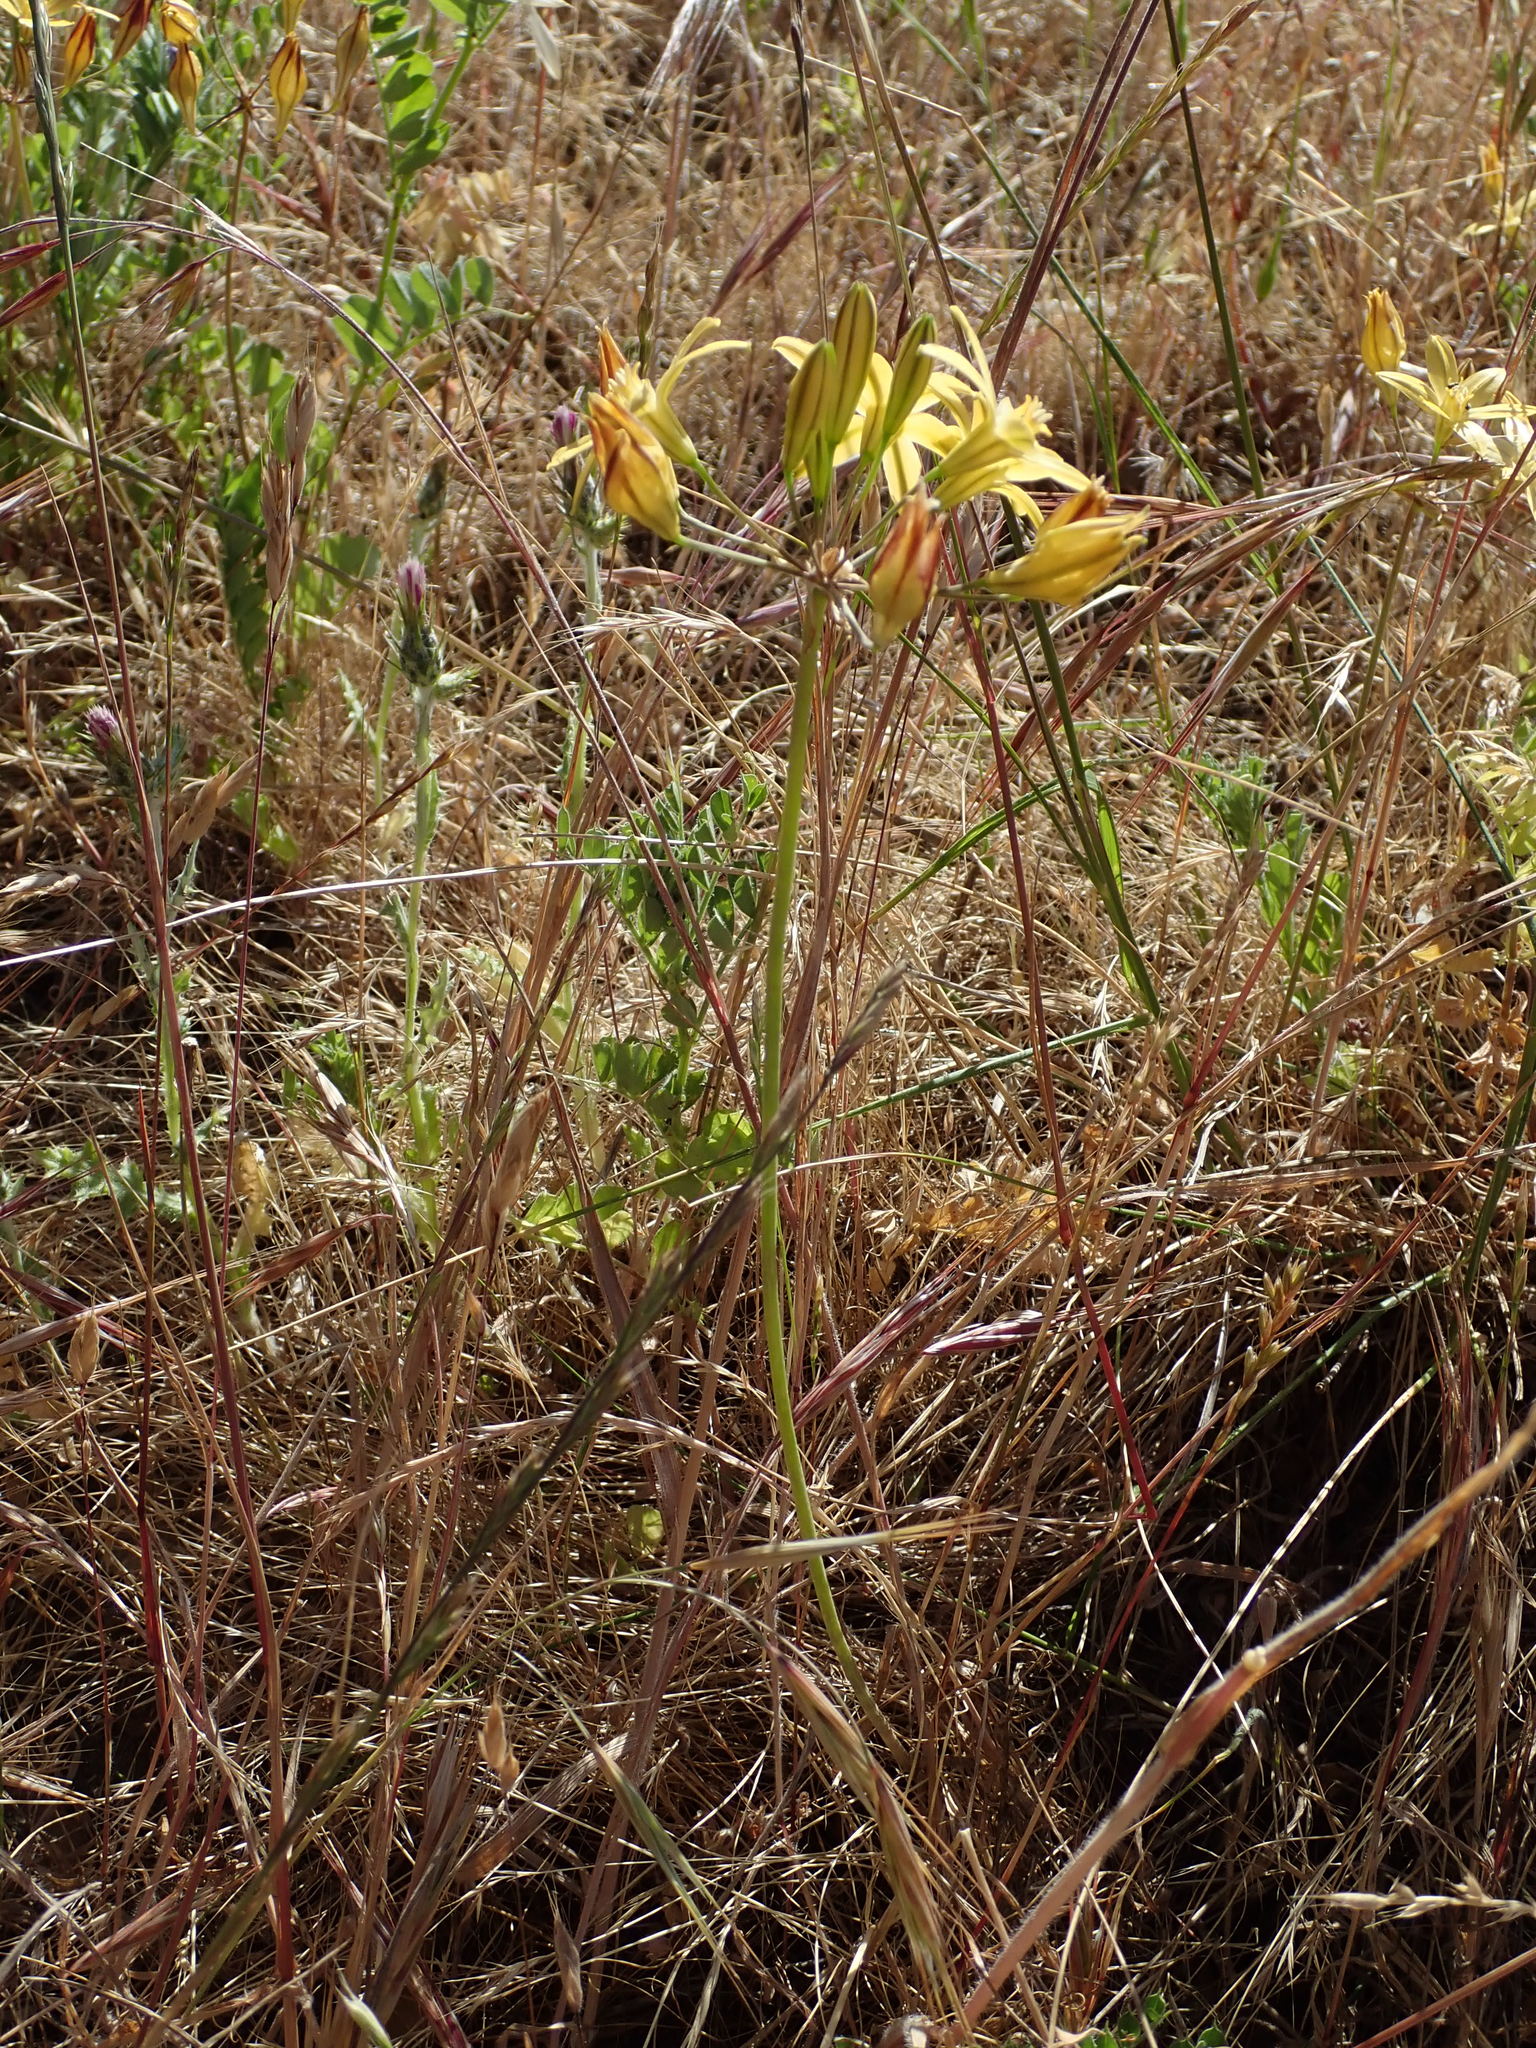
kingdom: Plantae
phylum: Tracheophyta
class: Liliopsida
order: Asparagales
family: Asparagaceae
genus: Triteleia
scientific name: Triteleia ixioides
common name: Yellow-brodiaea
